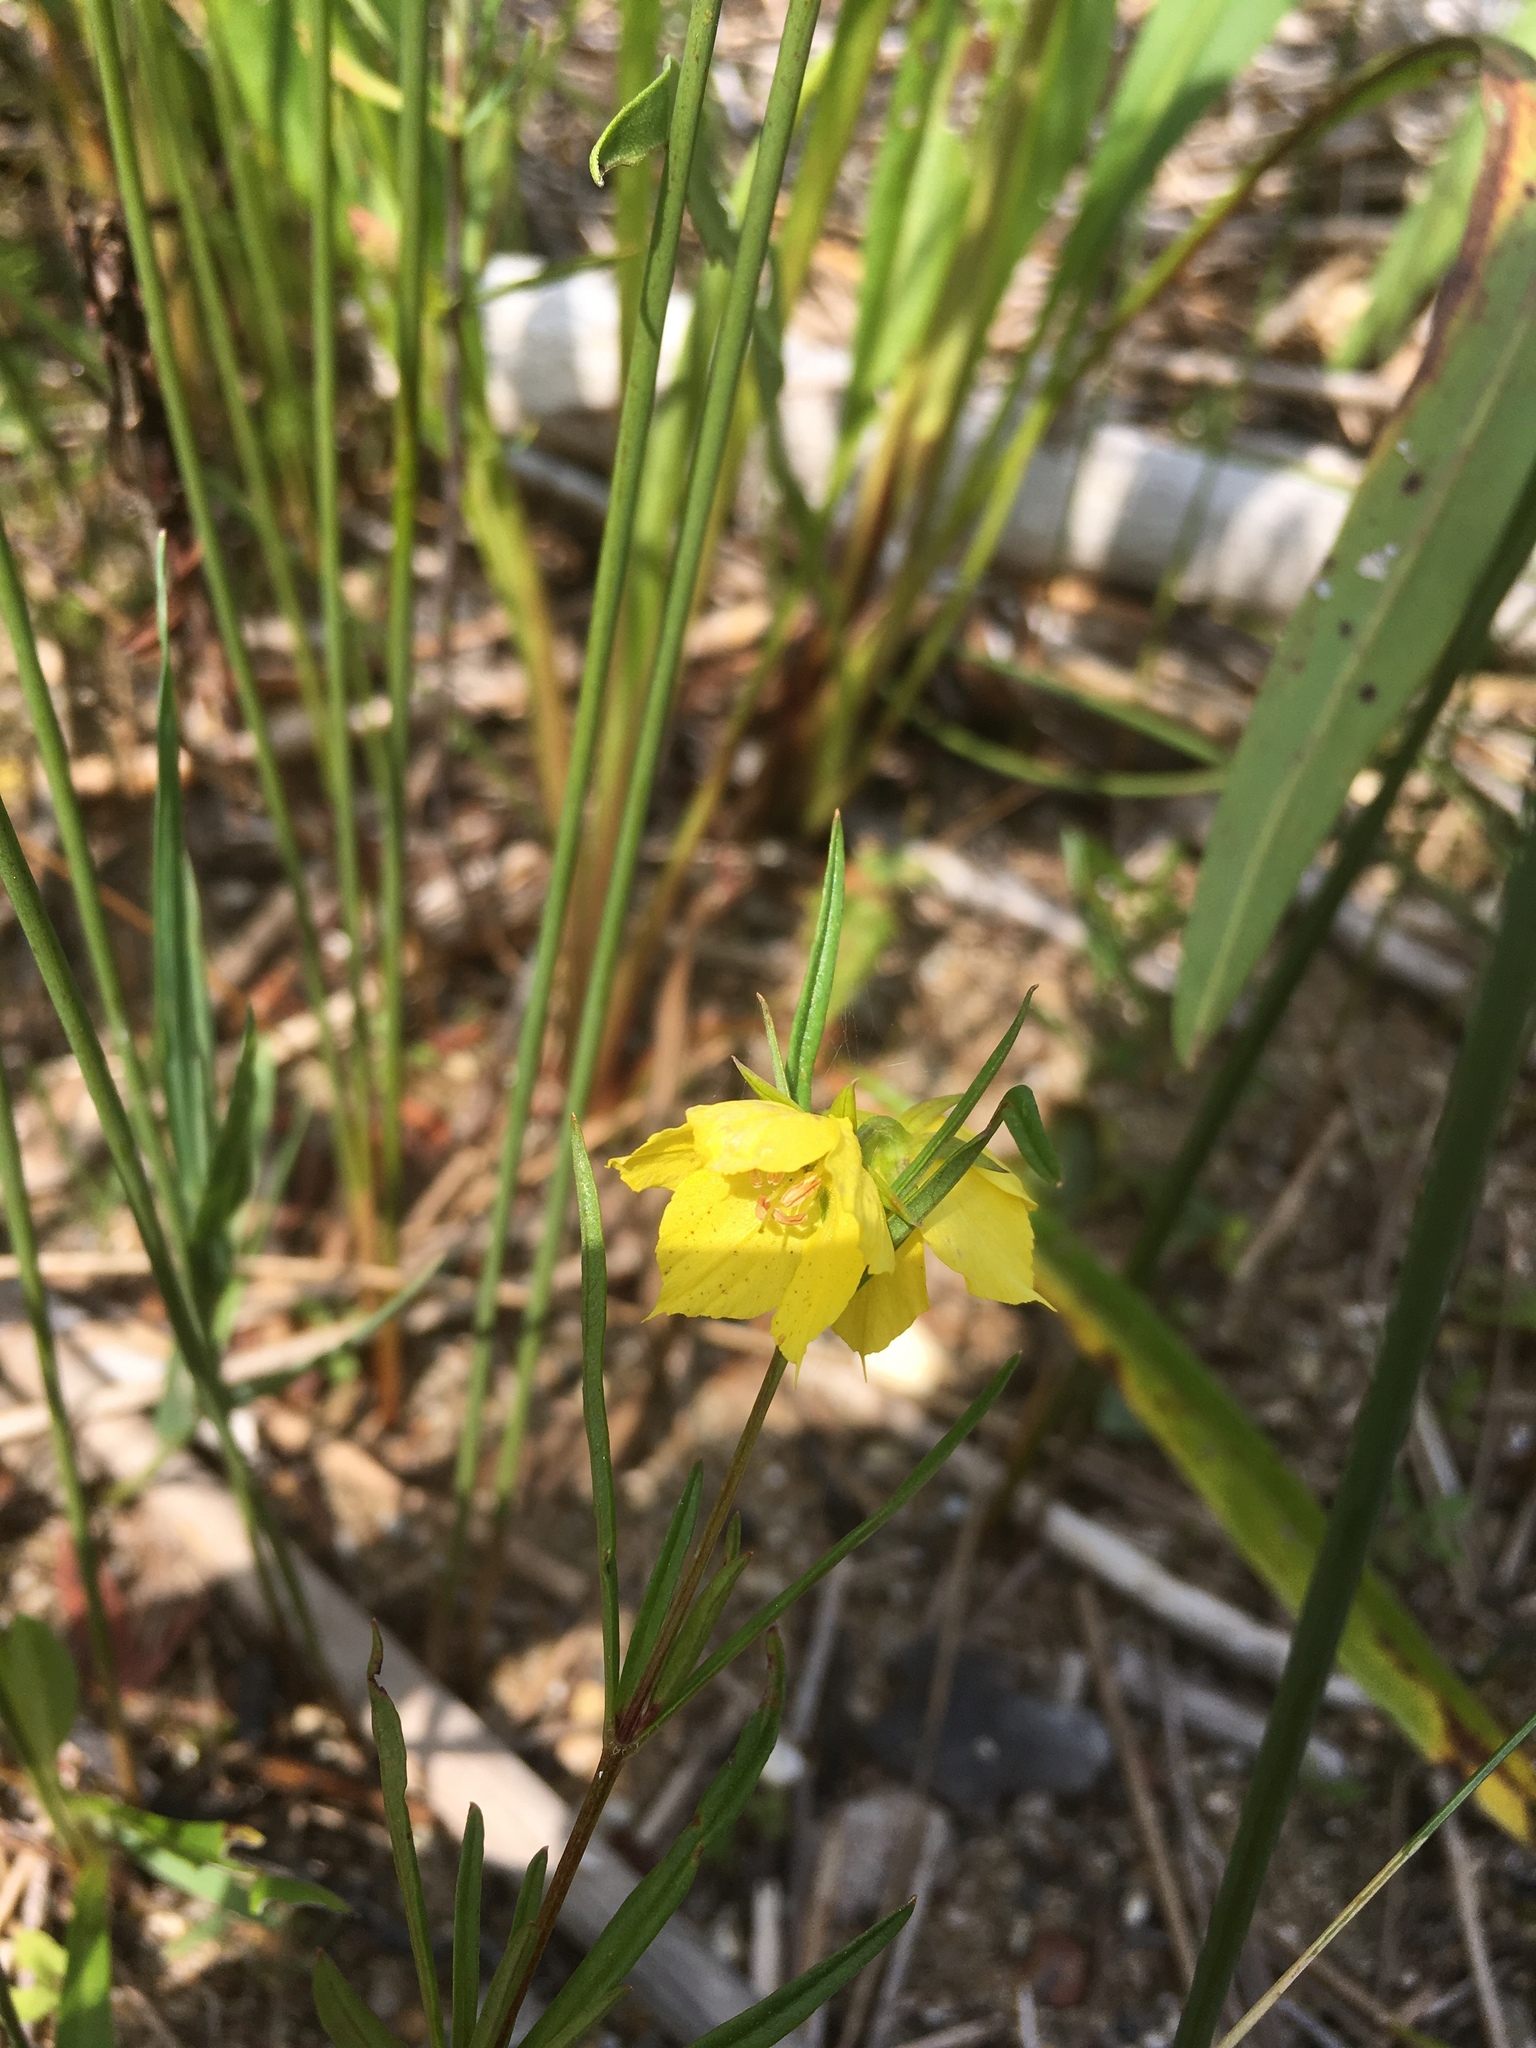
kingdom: Plantae
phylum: Tracheophyta
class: Magnoliopsida
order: Ericales
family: Primulaceae
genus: Lysimachia
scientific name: Lysimachia quadriflora
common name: Four-flowered loosestrife
